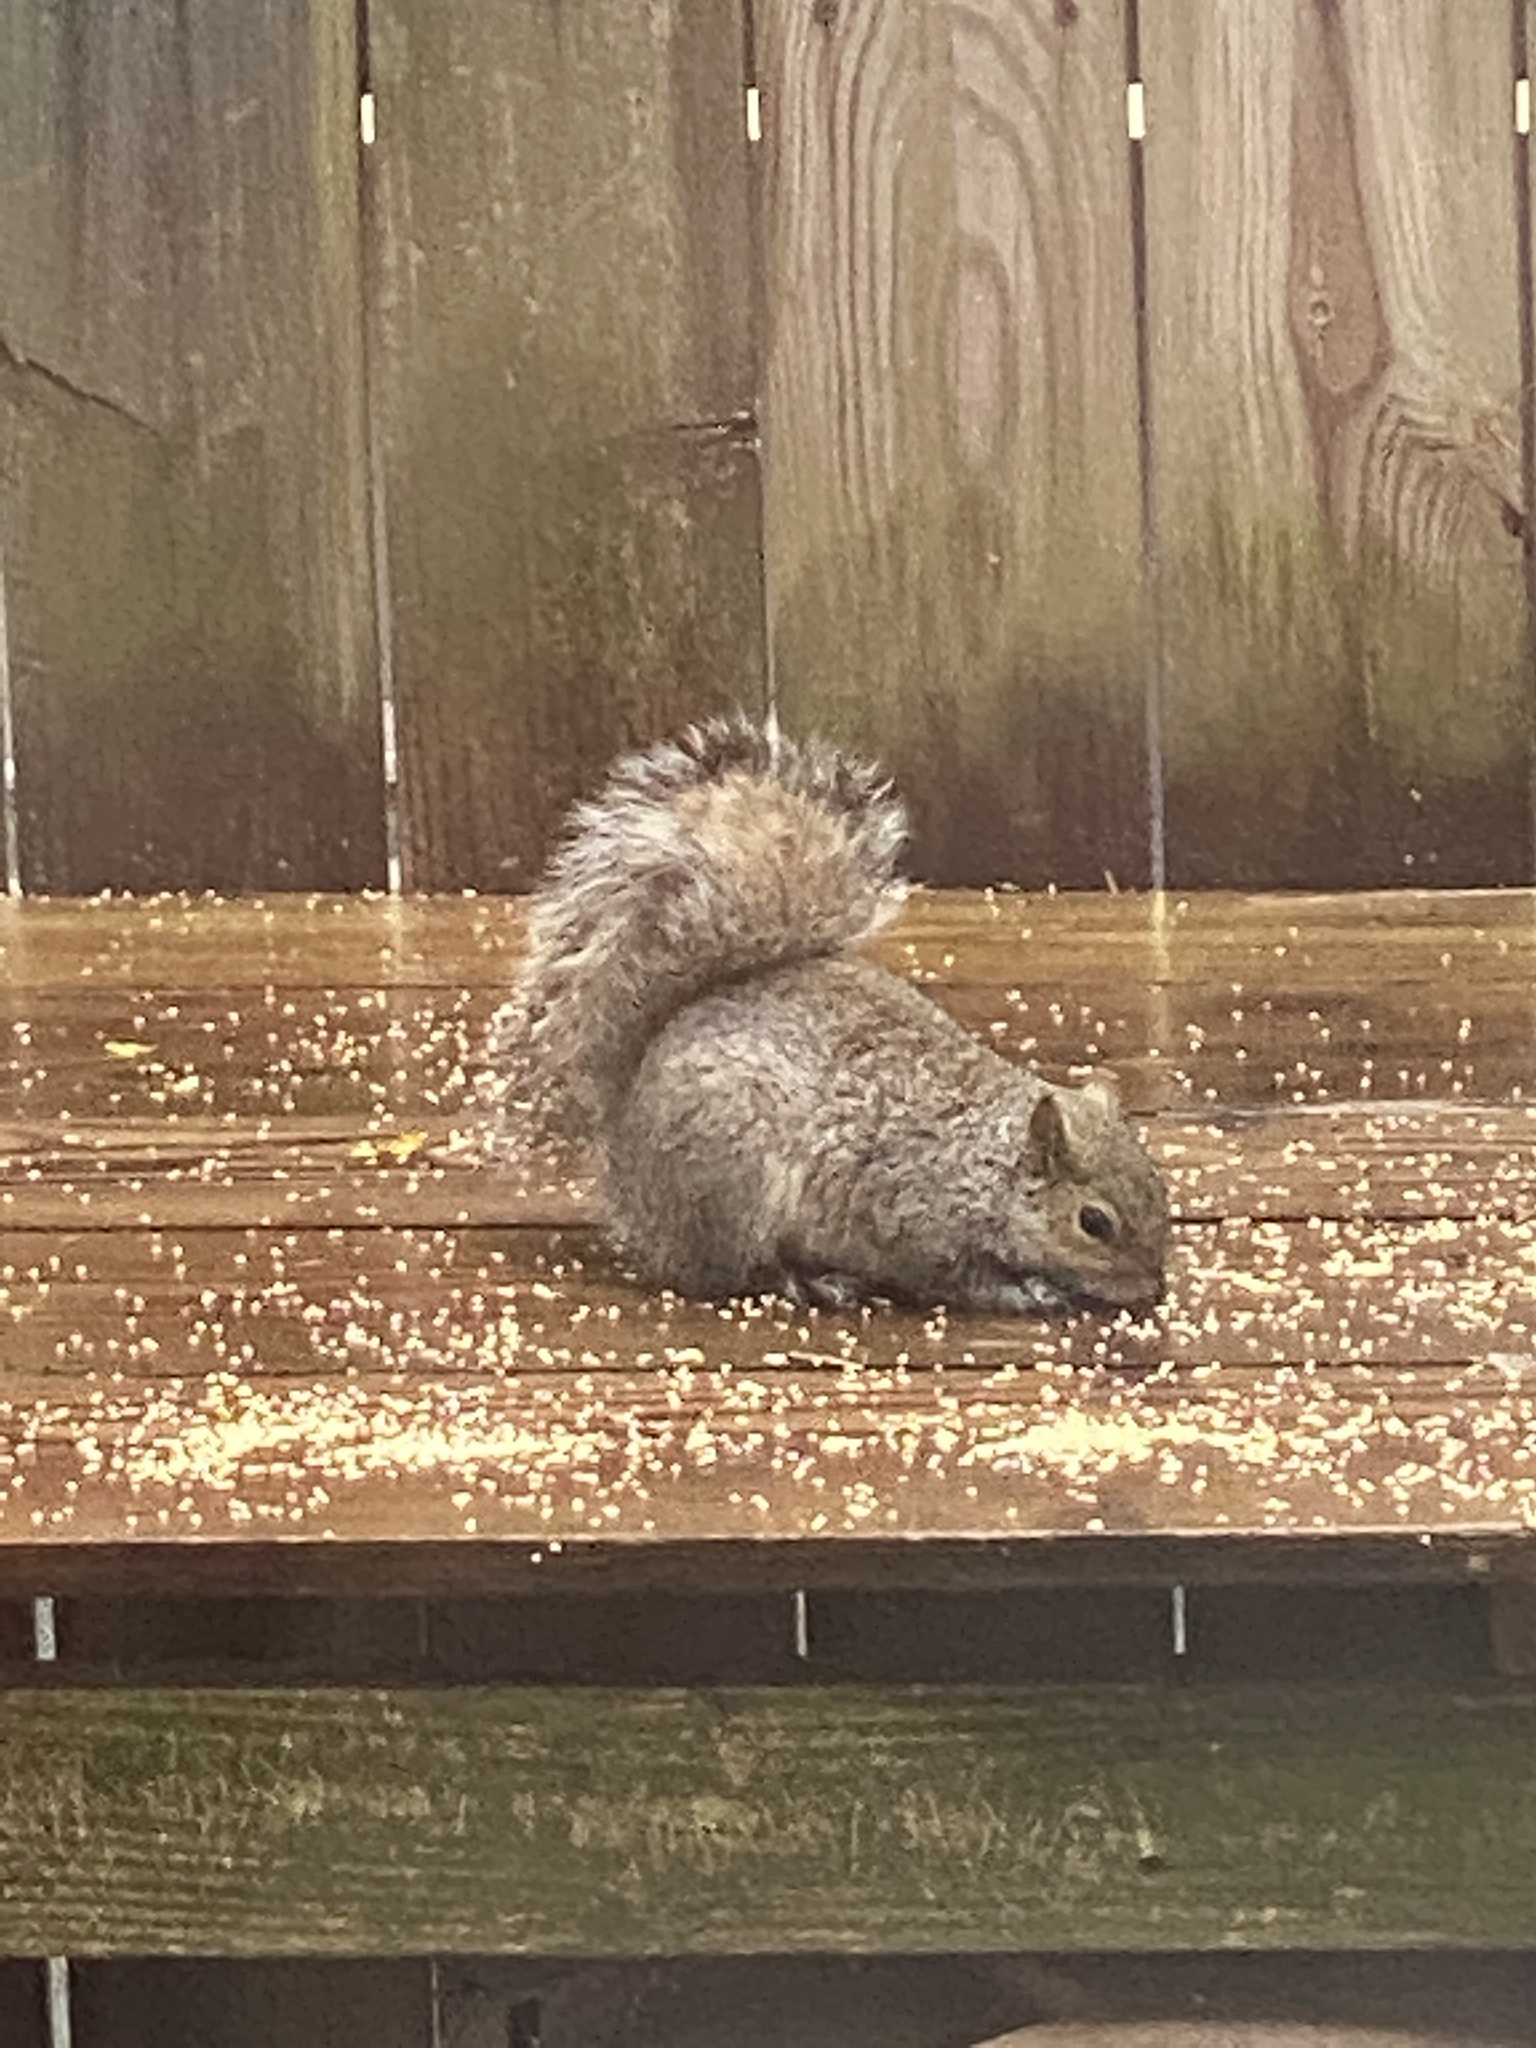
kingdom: Animalia
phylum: Chordata
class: Mammalia
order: Rodentia
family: Sciuridae
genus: Sciurus
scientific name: Sciurus carolinensis
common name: Eastern gray squirrel
